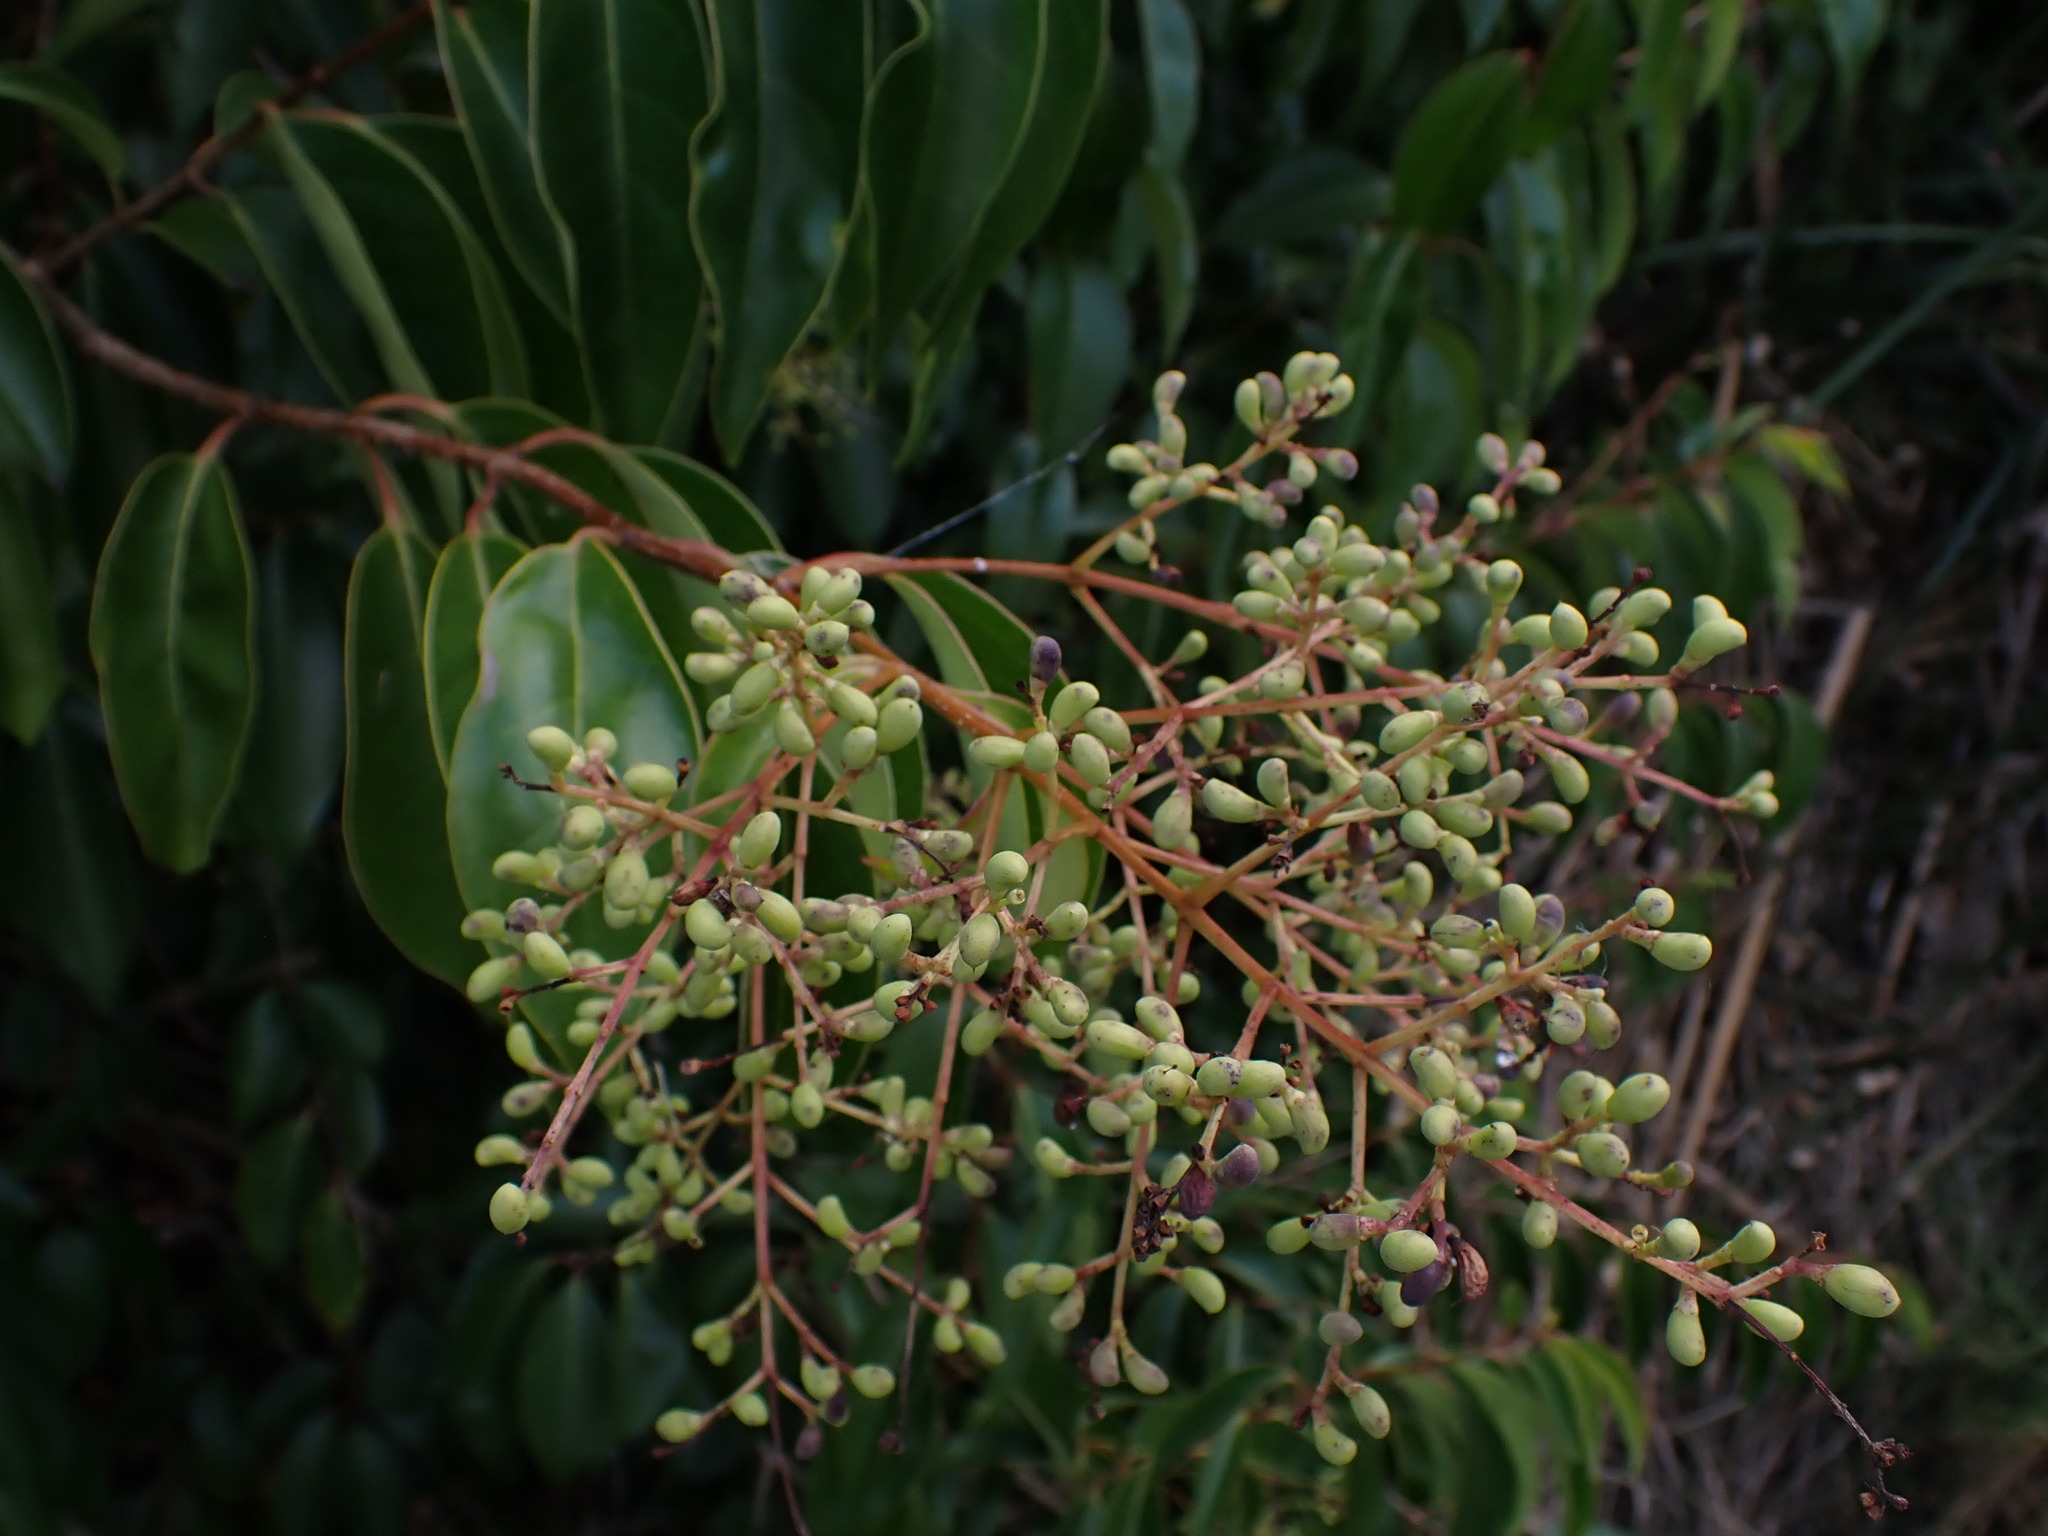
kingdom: Plantae
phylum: Tracheophyta
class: Magnoliopsida
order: Lamiales
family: Oleaceae
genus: Ligustrum
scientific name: Ligustrum lucidum
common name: Glossy privet
